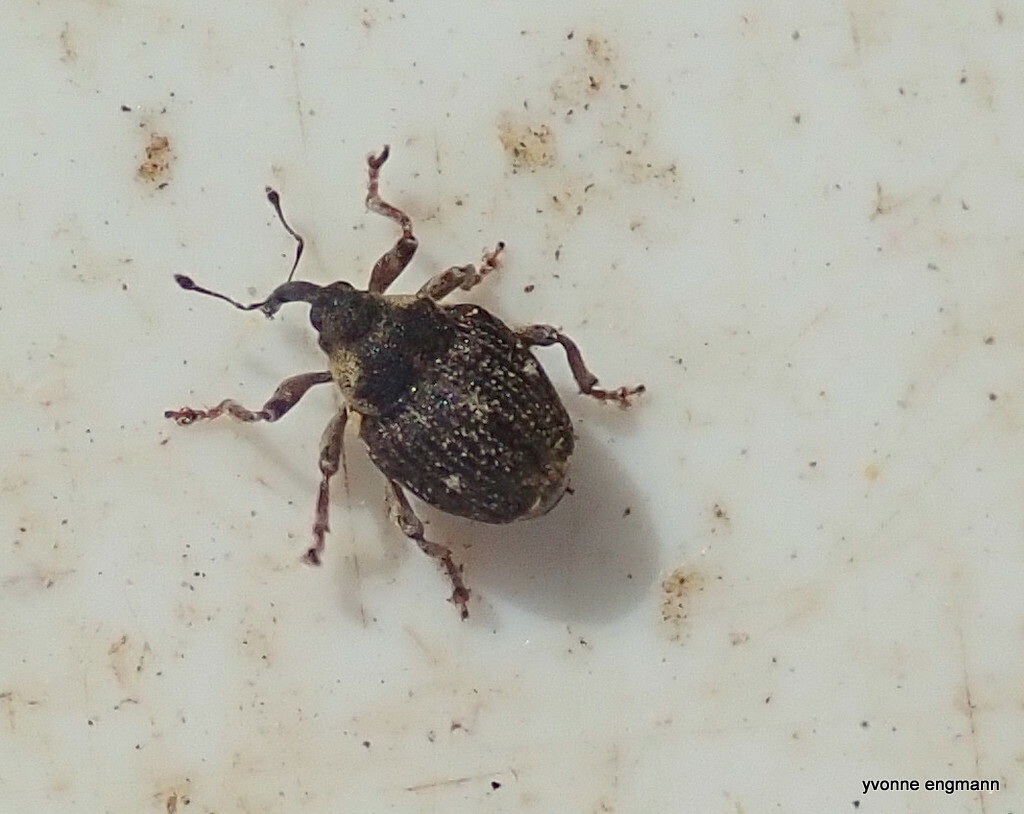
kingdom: Animalia
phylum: Arthropoda
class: Insecta
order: Coleoptera
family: Curculionidae
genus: Nedyus
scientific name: Nedyus quadrimaculatus
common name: Small nettle weevil
